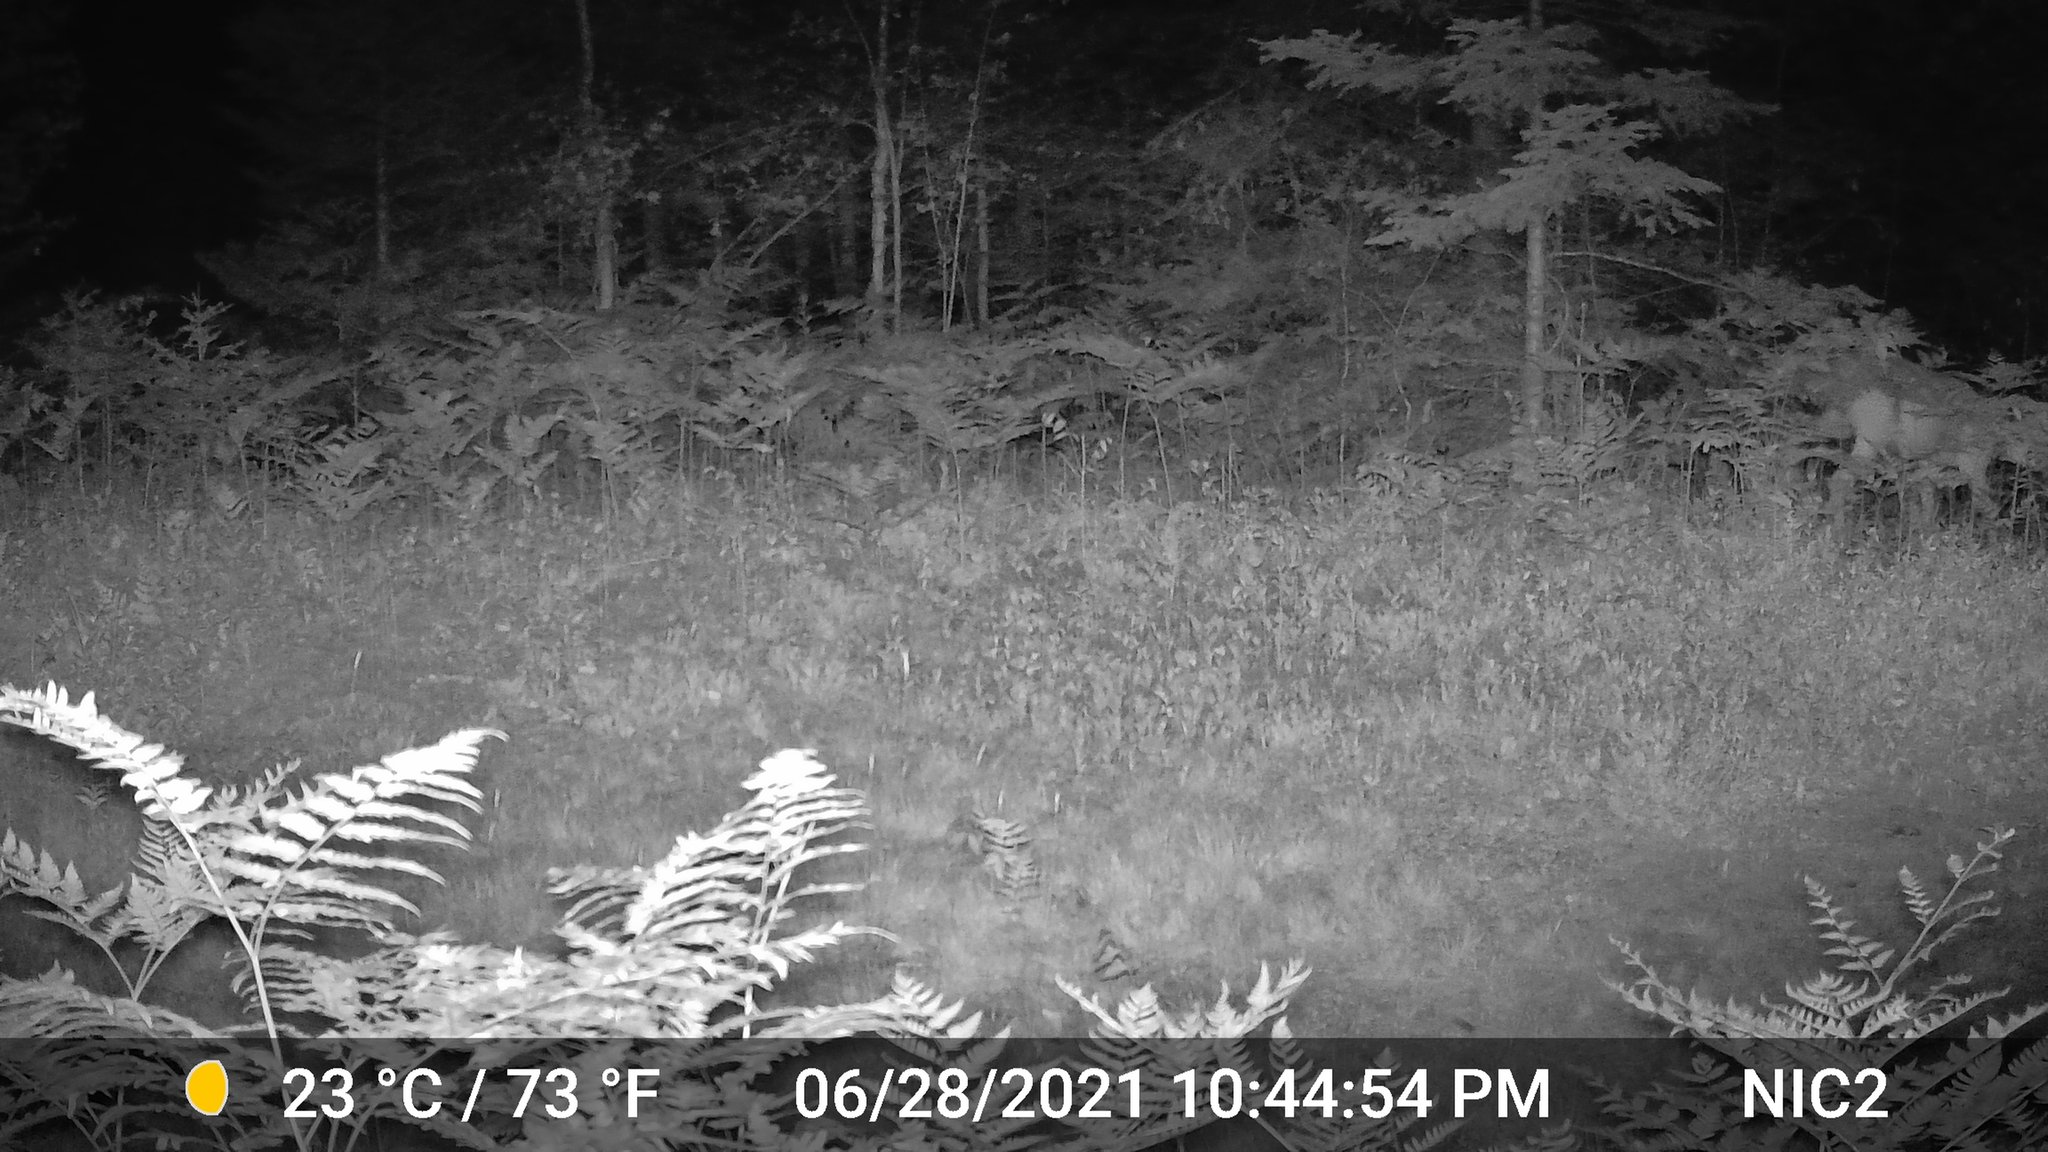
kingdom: Animalia
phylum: Chordata
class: Mammalia
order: Artiodactyla
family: Cervidae
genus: Odocoileus
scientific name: Odocoileus virginianus
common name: White-tailed deer
